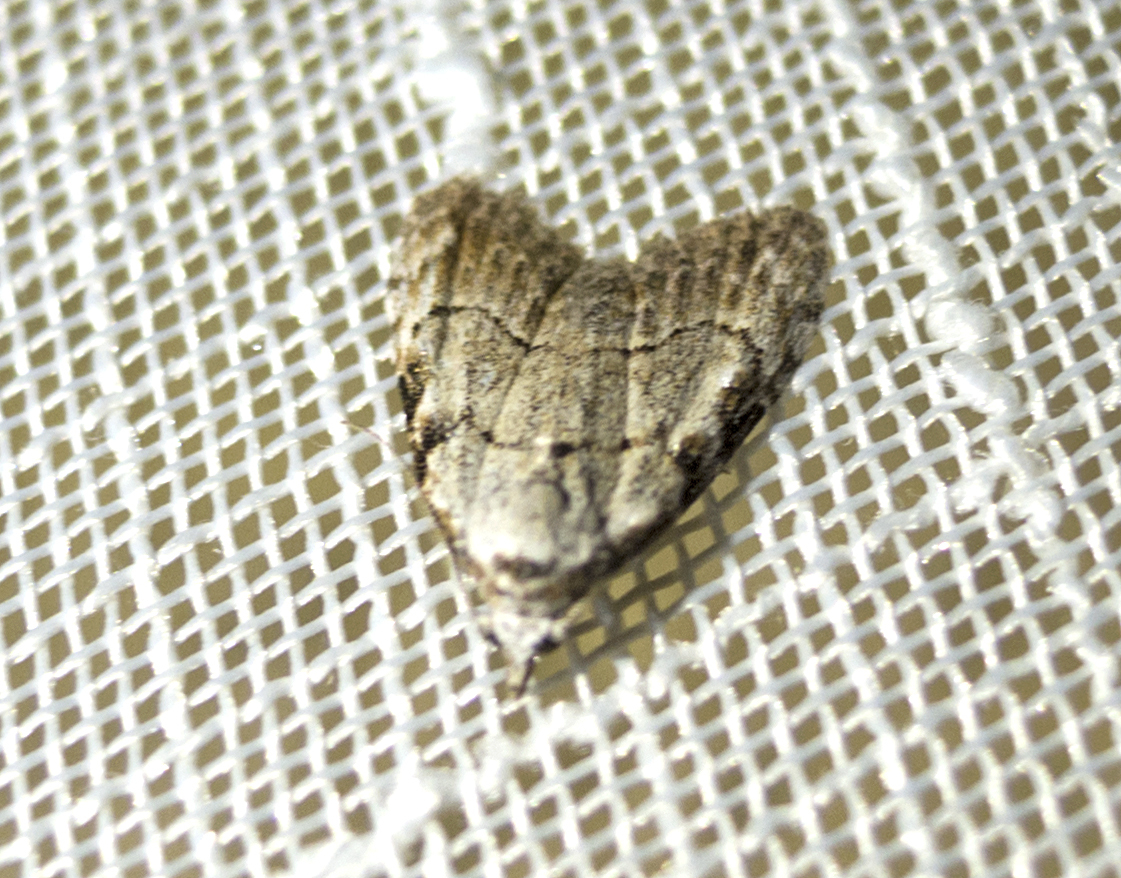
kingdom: Animalia
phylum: Arthropoda
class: Insecta
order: Lepidoptera
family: Nolidae
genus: Nola
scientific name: Nola confusalis
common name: Least black arches
